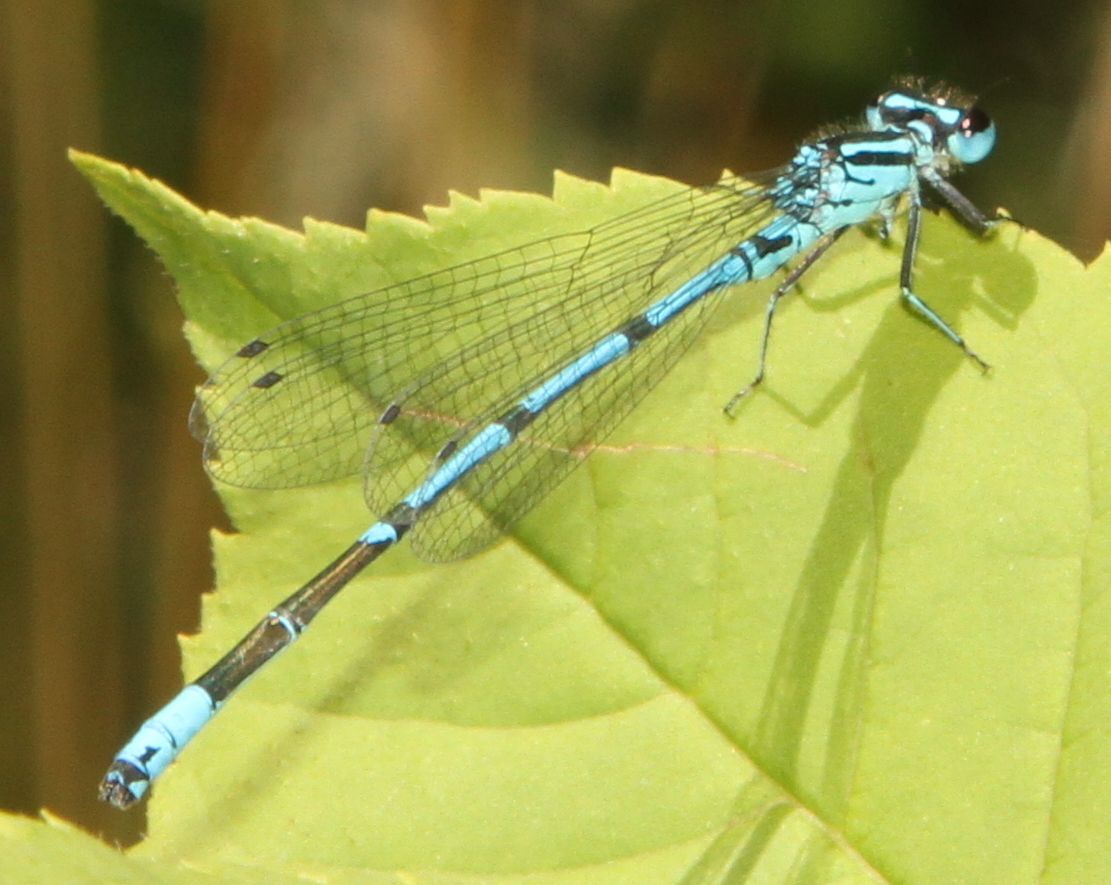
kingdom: Animalia
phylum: Arthropoda
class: Insecta
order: Odonata
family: Coenagrionidae
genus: Coenagrion
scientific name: Coenagrion puella
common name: Azure damselfly
